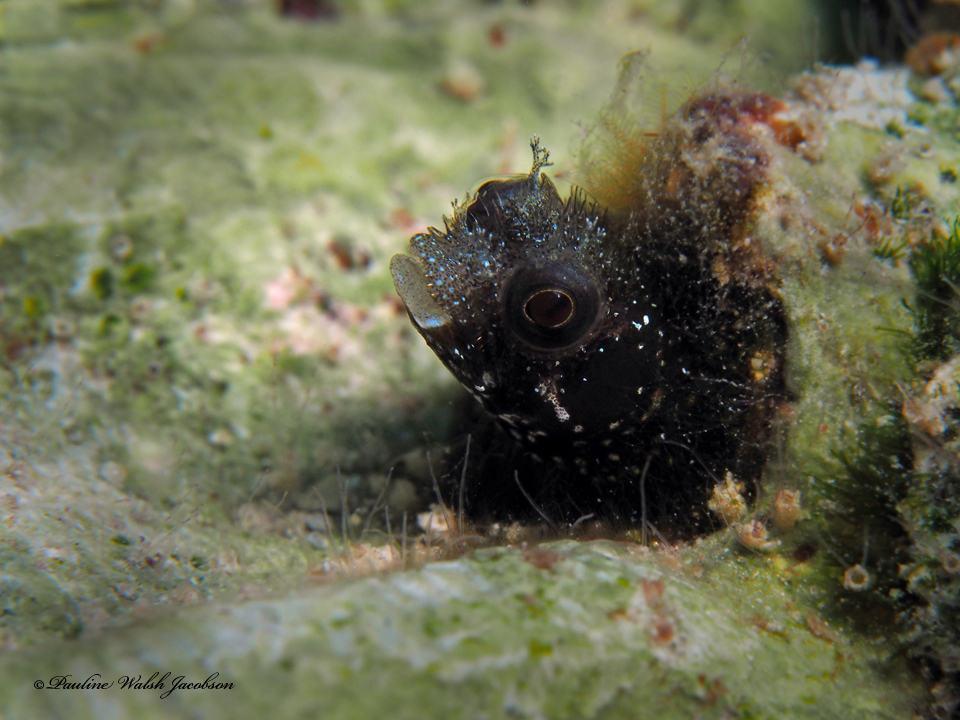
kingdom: Animalia
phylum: Chordata
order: Perciformes
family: Chaenopsidae
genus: Acanthemblemaria
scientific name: Acanthemblemaria spinosa
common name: Spinyhead blenny
